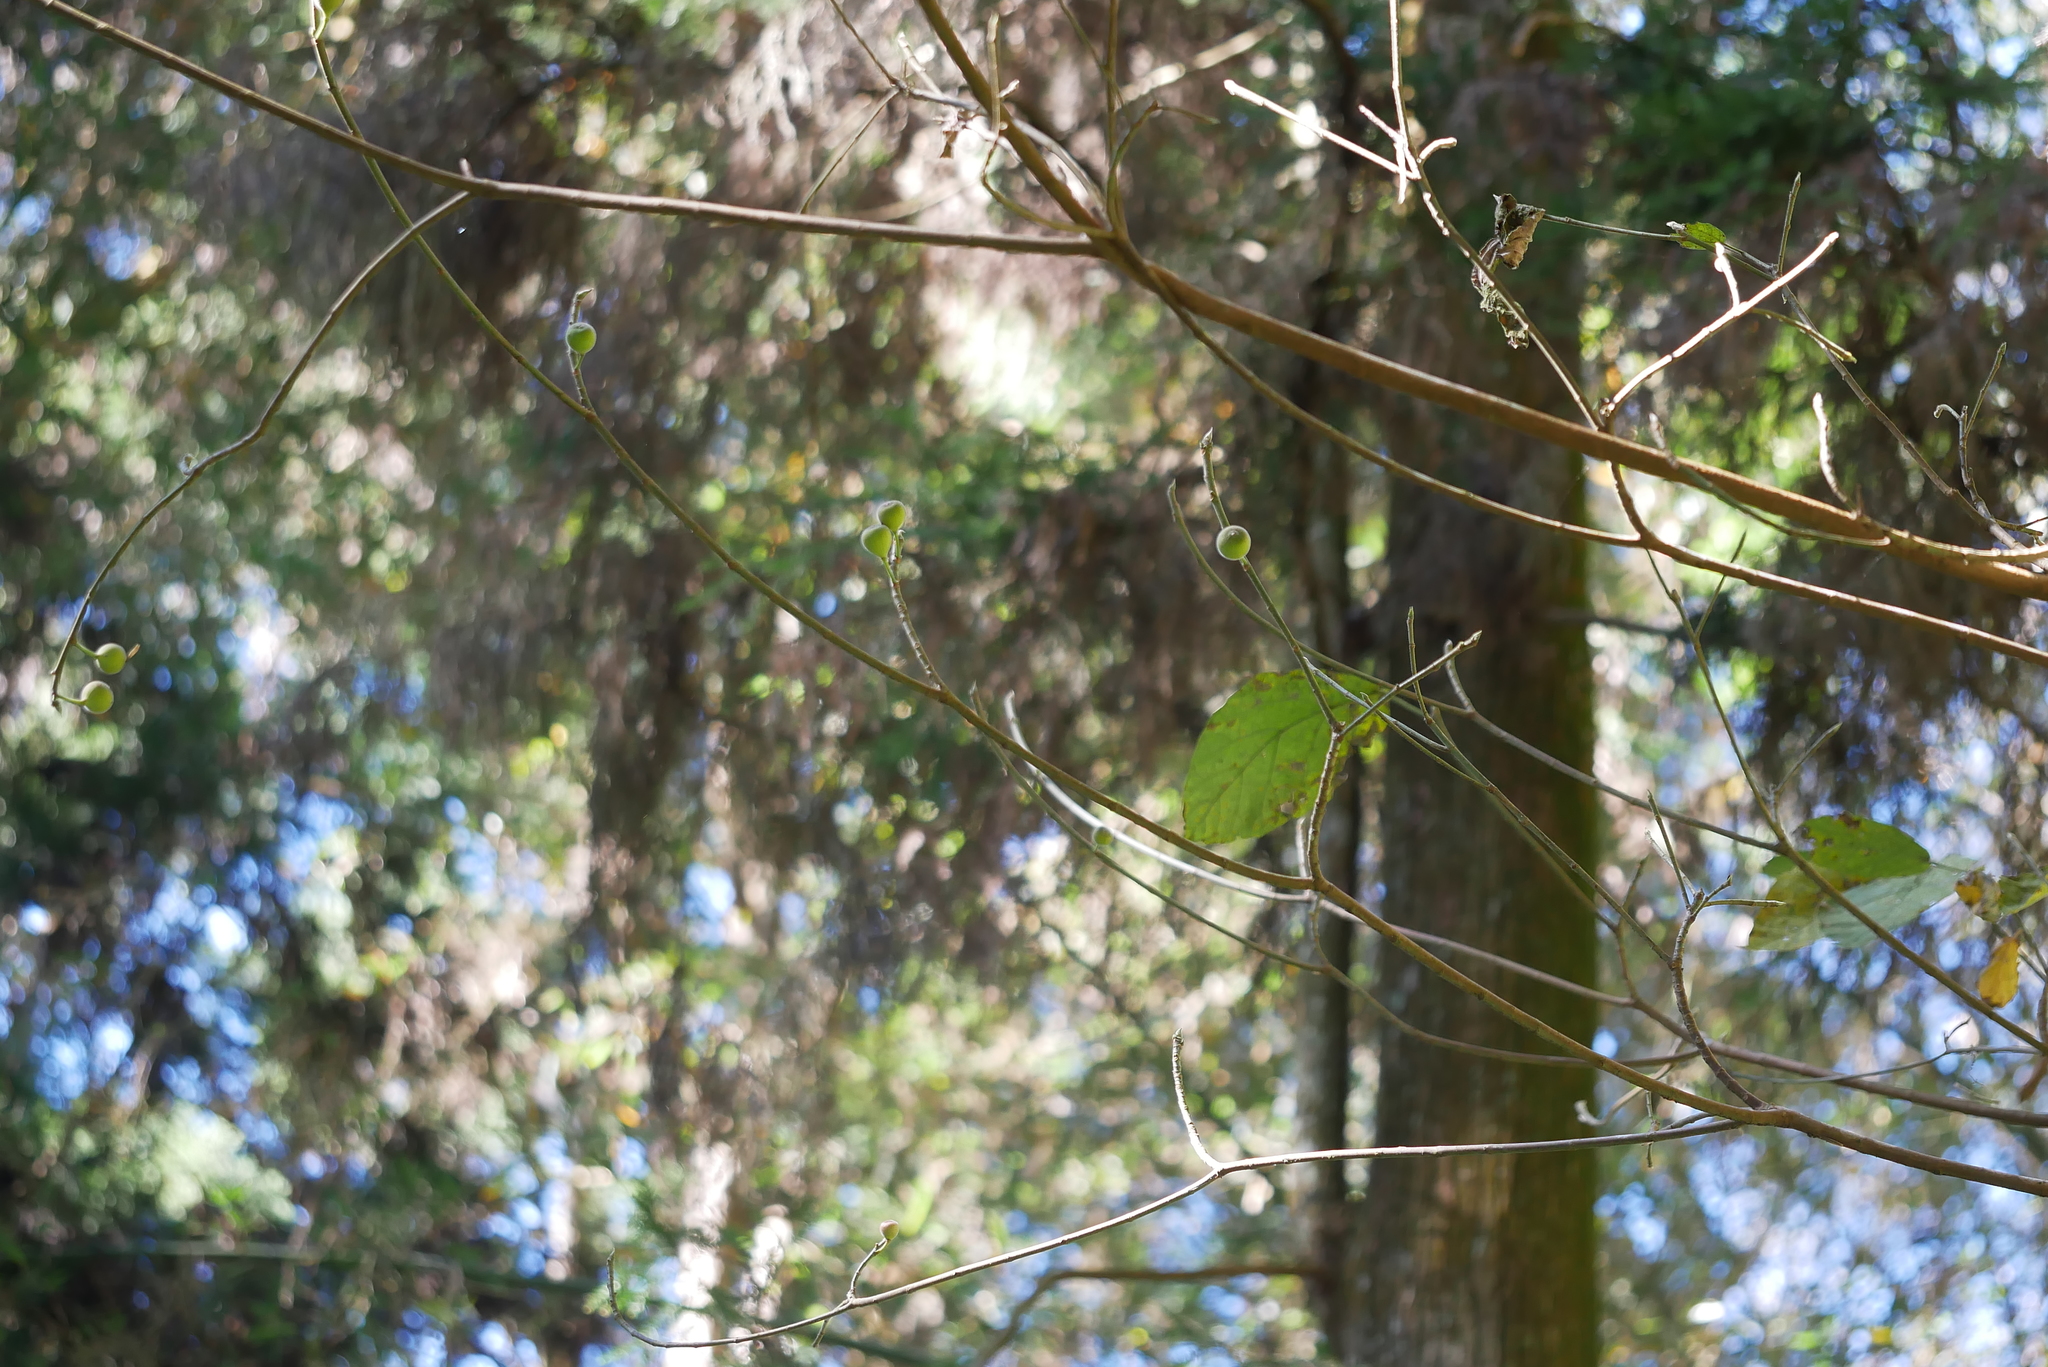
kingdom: Plantae
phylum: Tracheophyta
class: Magnoliopsida
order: Rosales
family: Moraceae
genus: Ficus
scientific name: Ficus erecta
